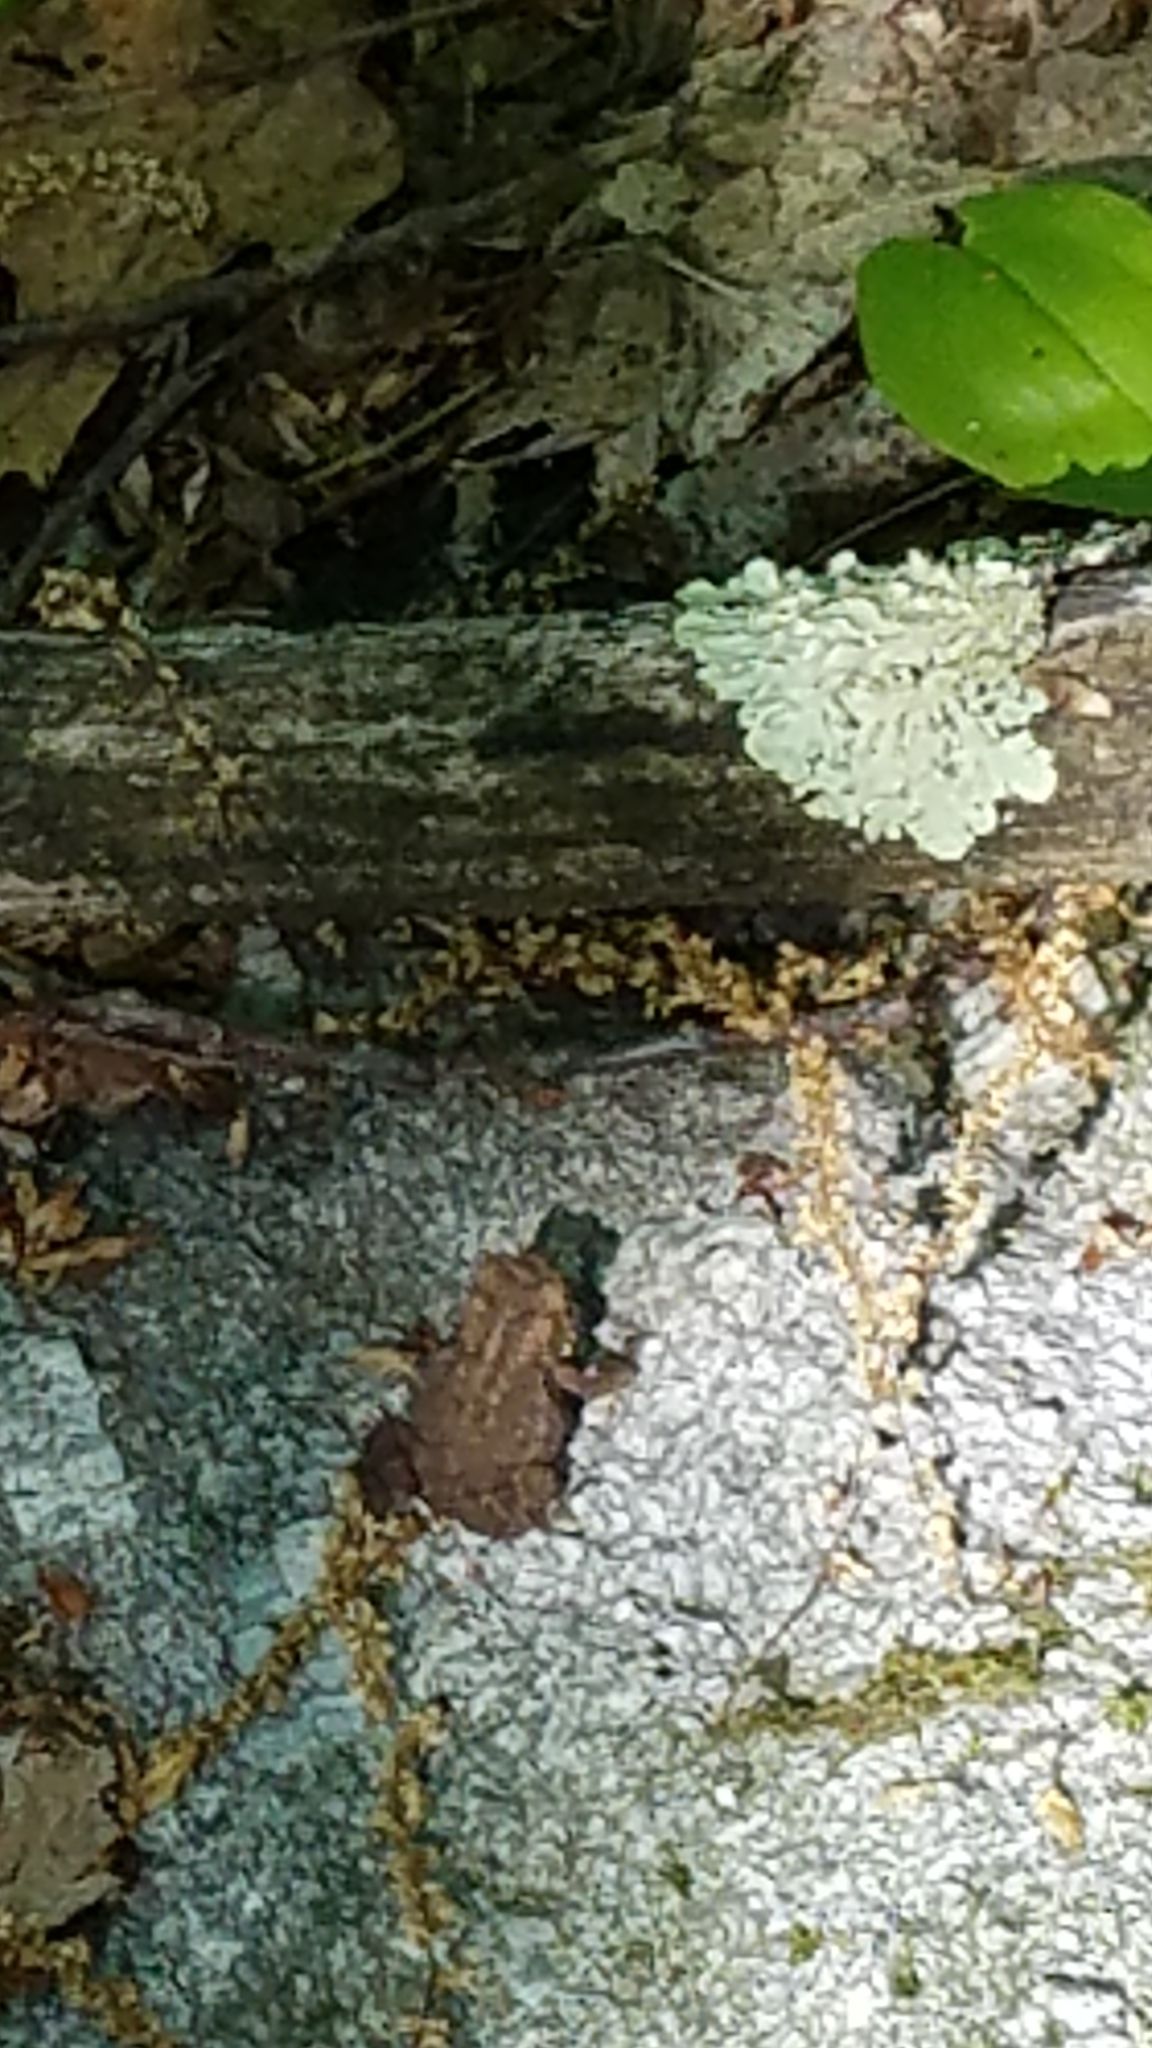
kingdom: Animalia
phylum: Chordata
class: Amphibia
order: Anura
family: Bufonidae
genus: Anaxyrus
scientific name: Anaxyrus americanus
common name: American toad
